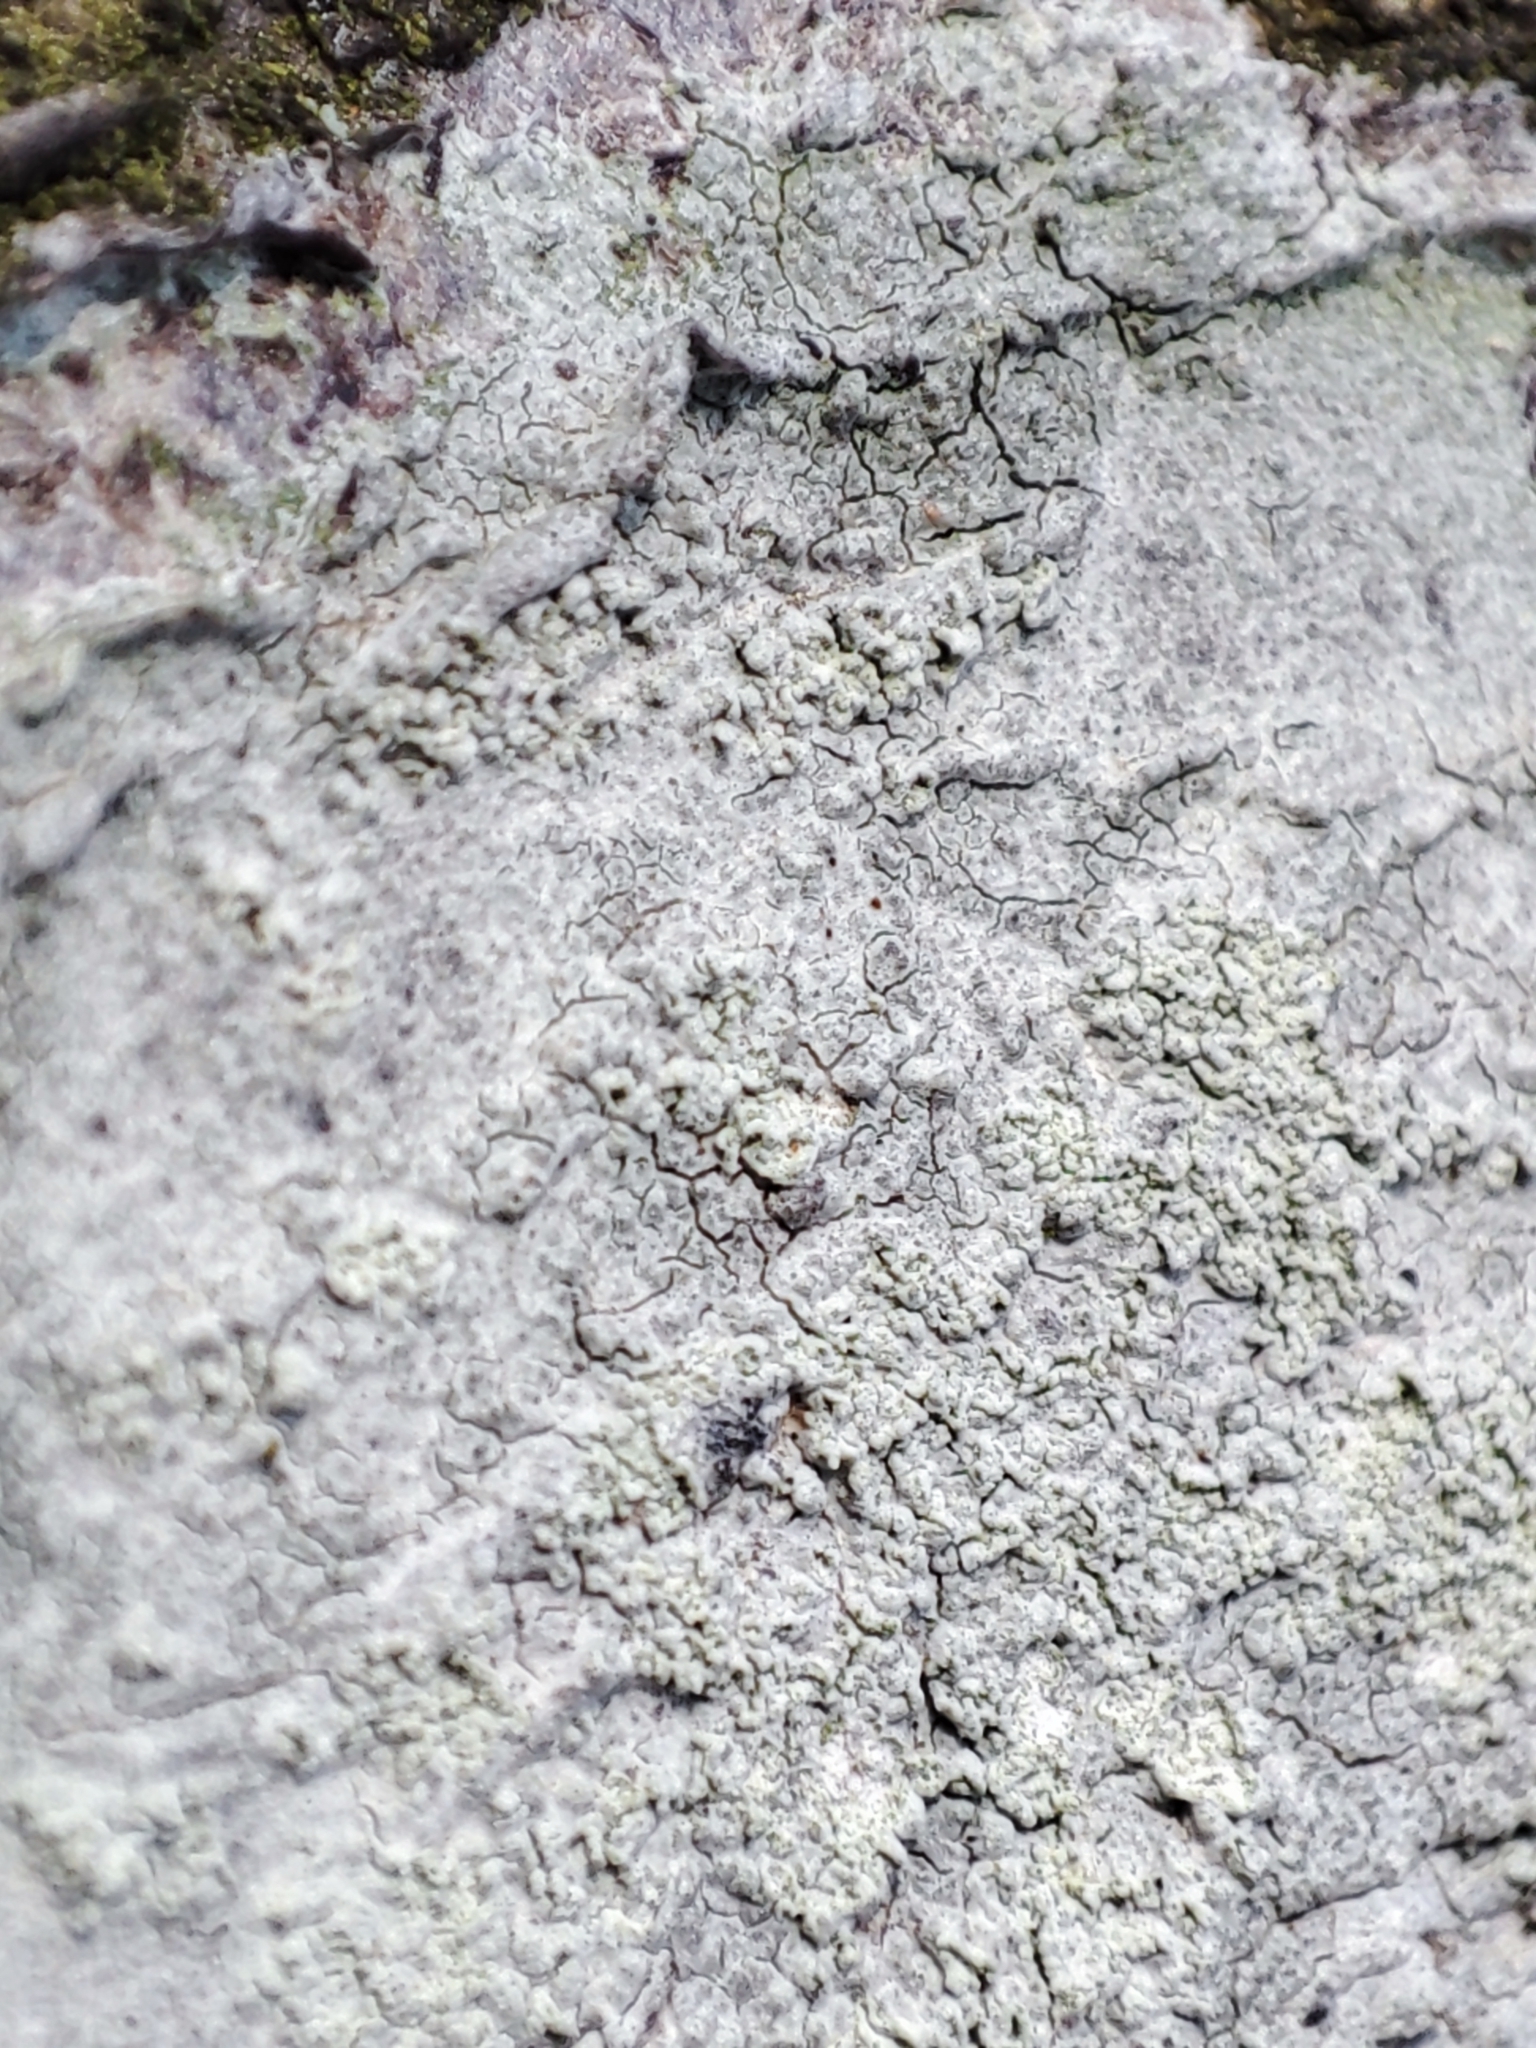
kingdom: Fungi
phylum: Ascomycota
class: Lecanoromycetes
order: Ostropales
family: Phlyctidaceae
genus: Phlyctis
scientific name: Phlyctis argena
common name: Whitewash lichen
